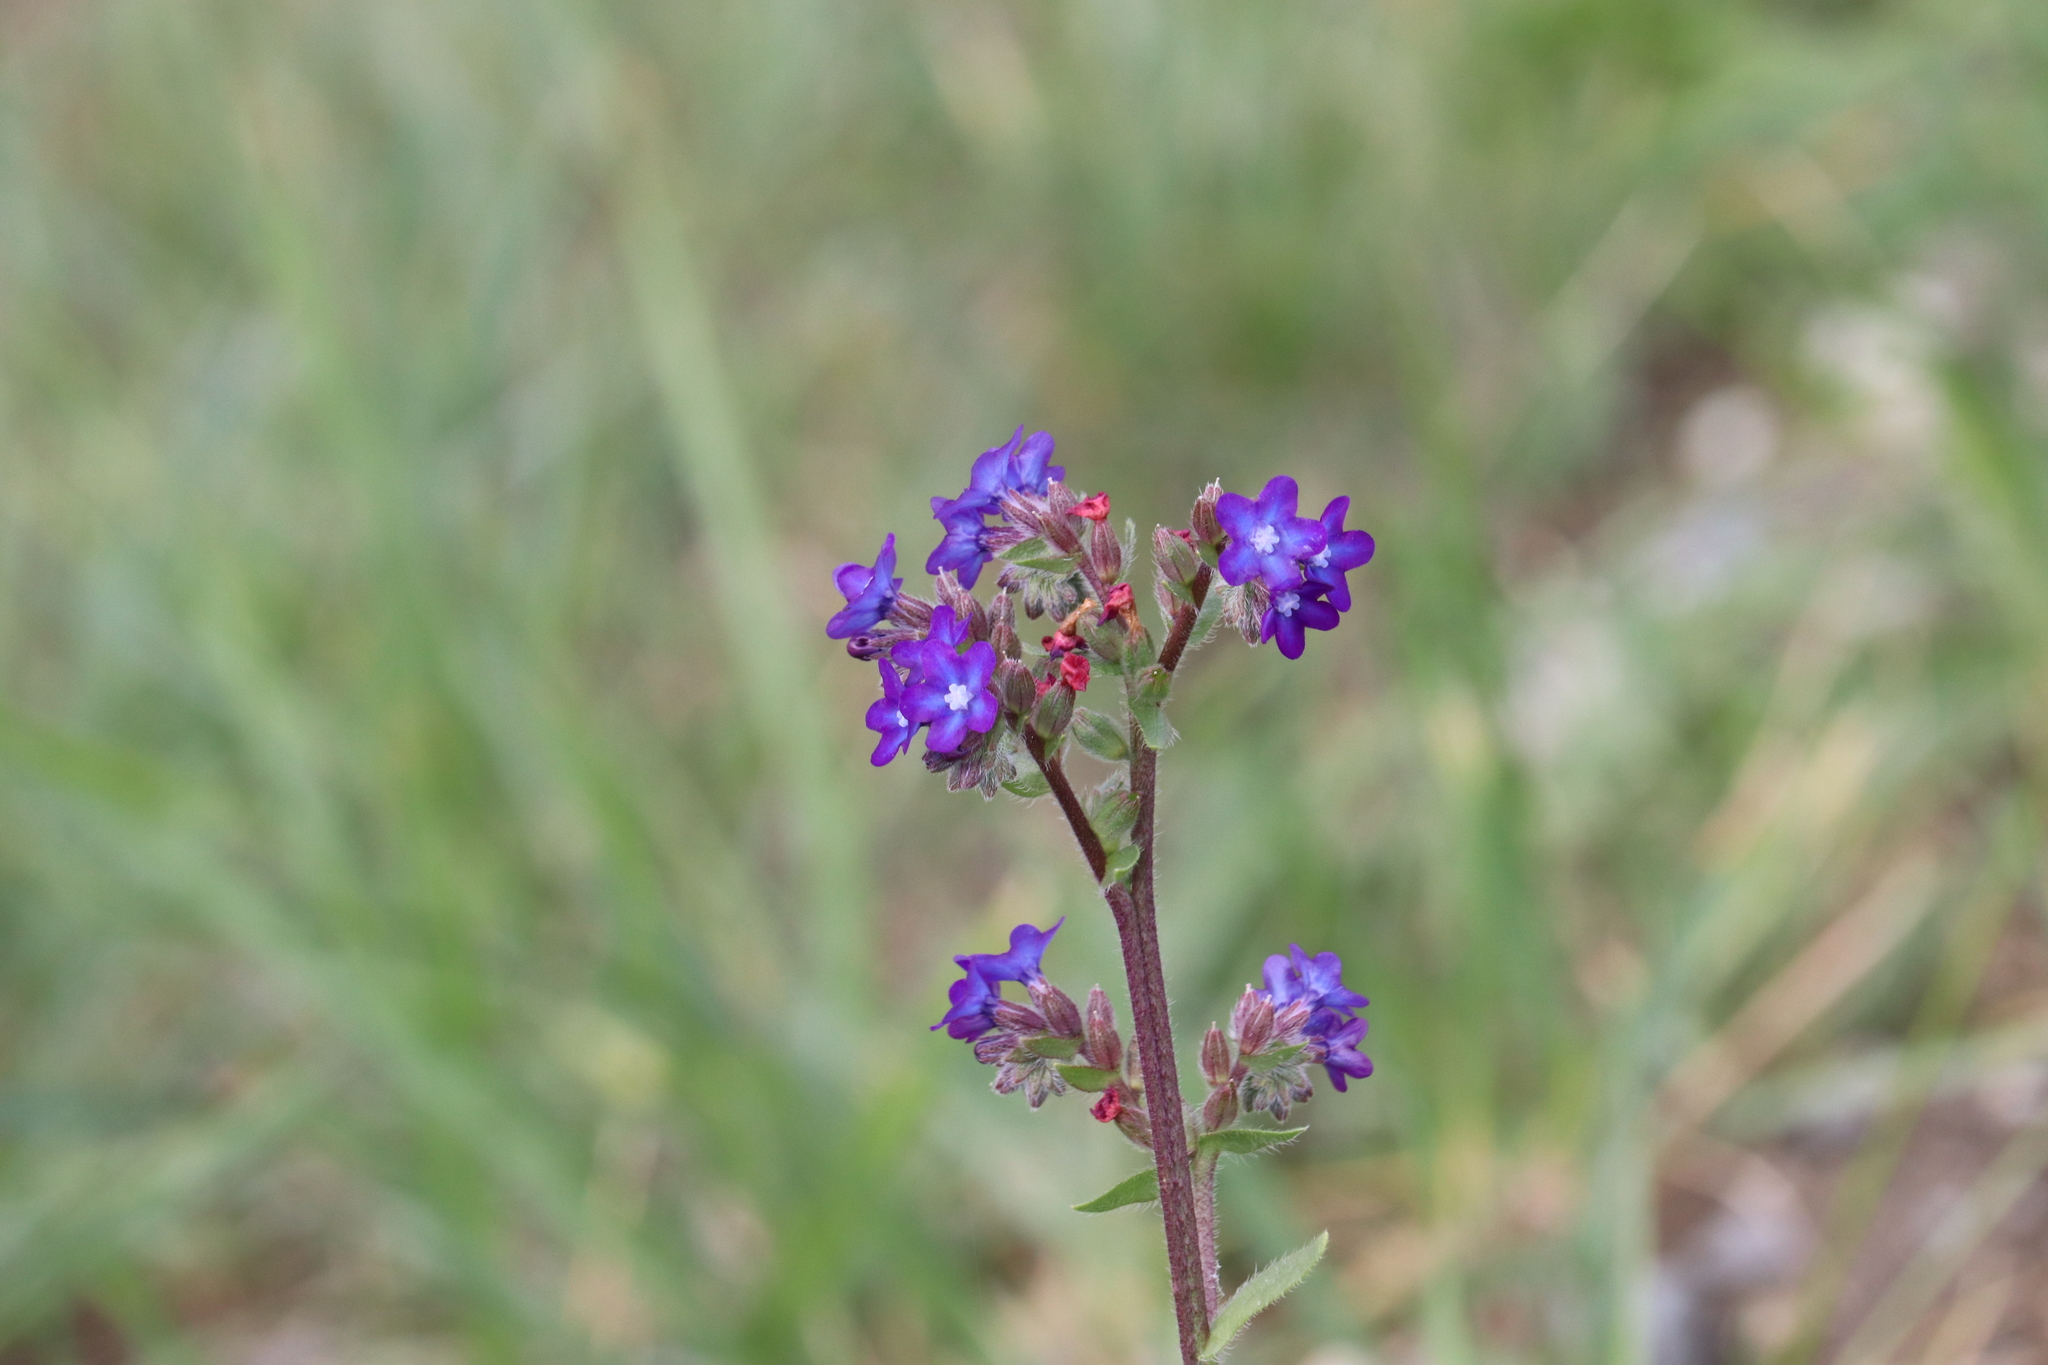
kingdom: Plantae
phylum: Tracheophyta
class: Magnoliopsida
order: Boraginales
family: Boraginaceae
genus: Anchusa
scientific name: Anchusa officinalis
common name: Alkanet
